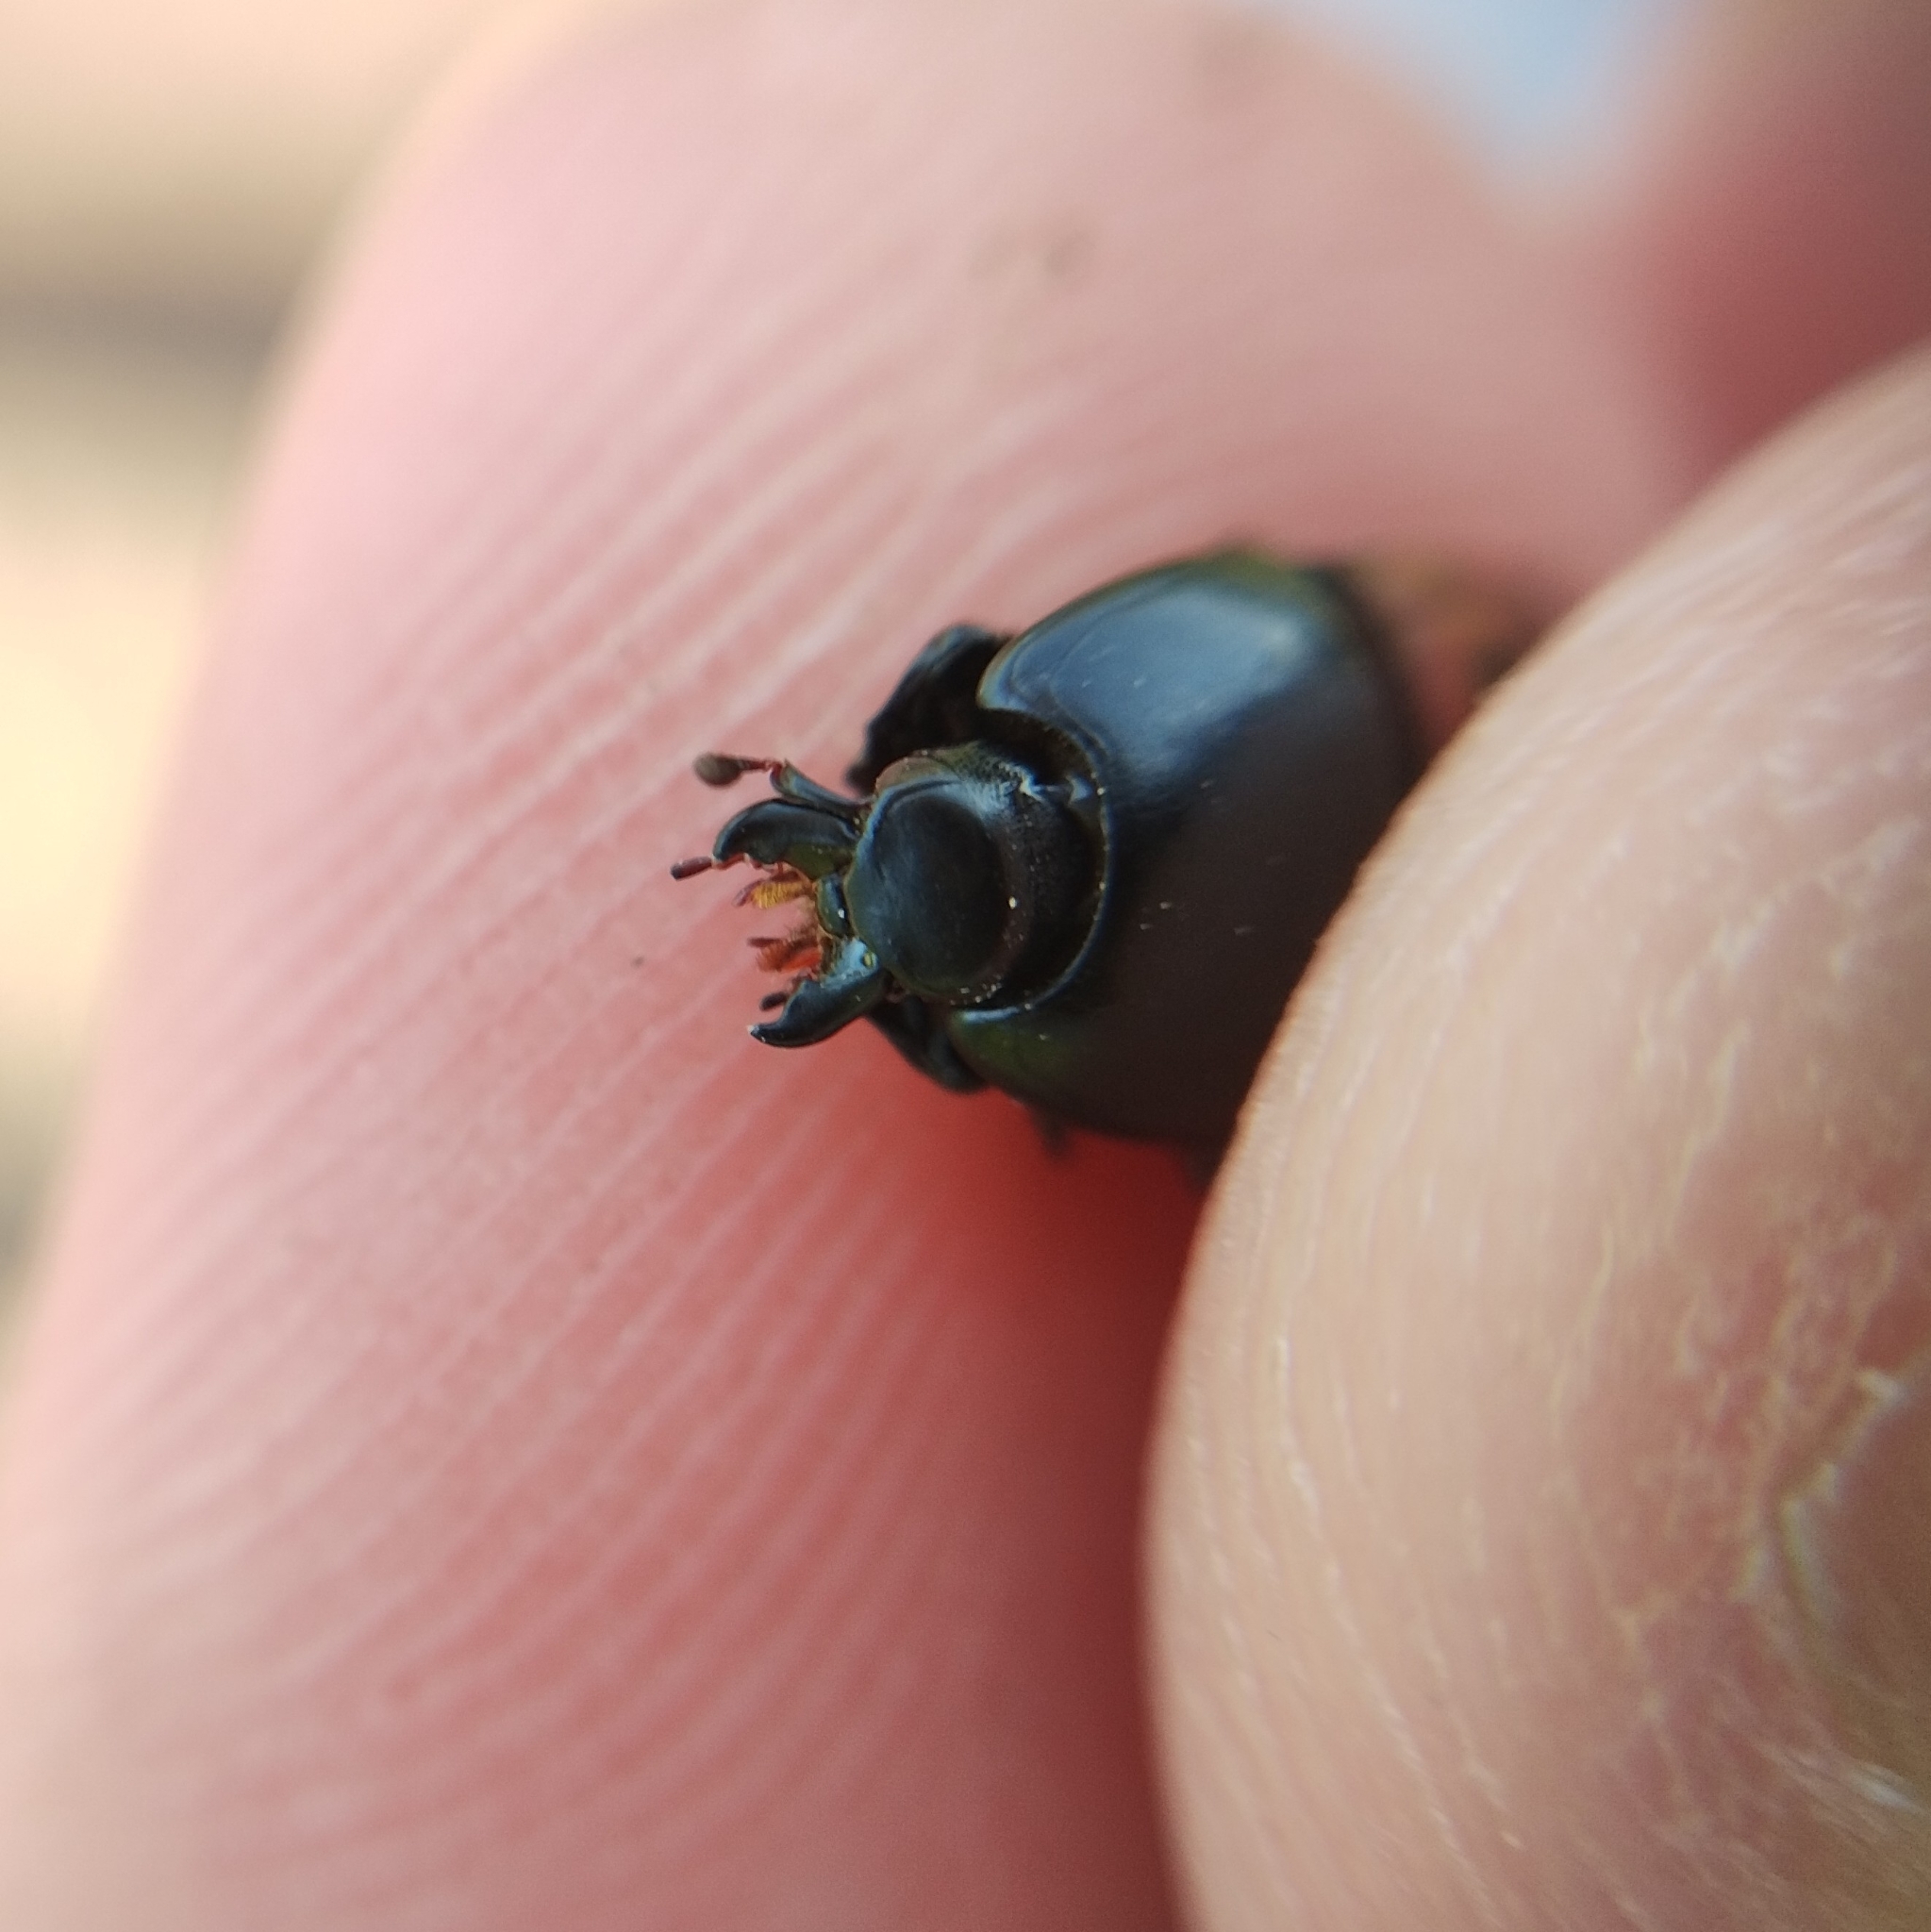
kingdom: Animalia
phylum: Arthropoda
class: Insecta
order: Coleoptera
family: Histeridae
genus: Hister
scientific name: Hister quadrimaculatus
